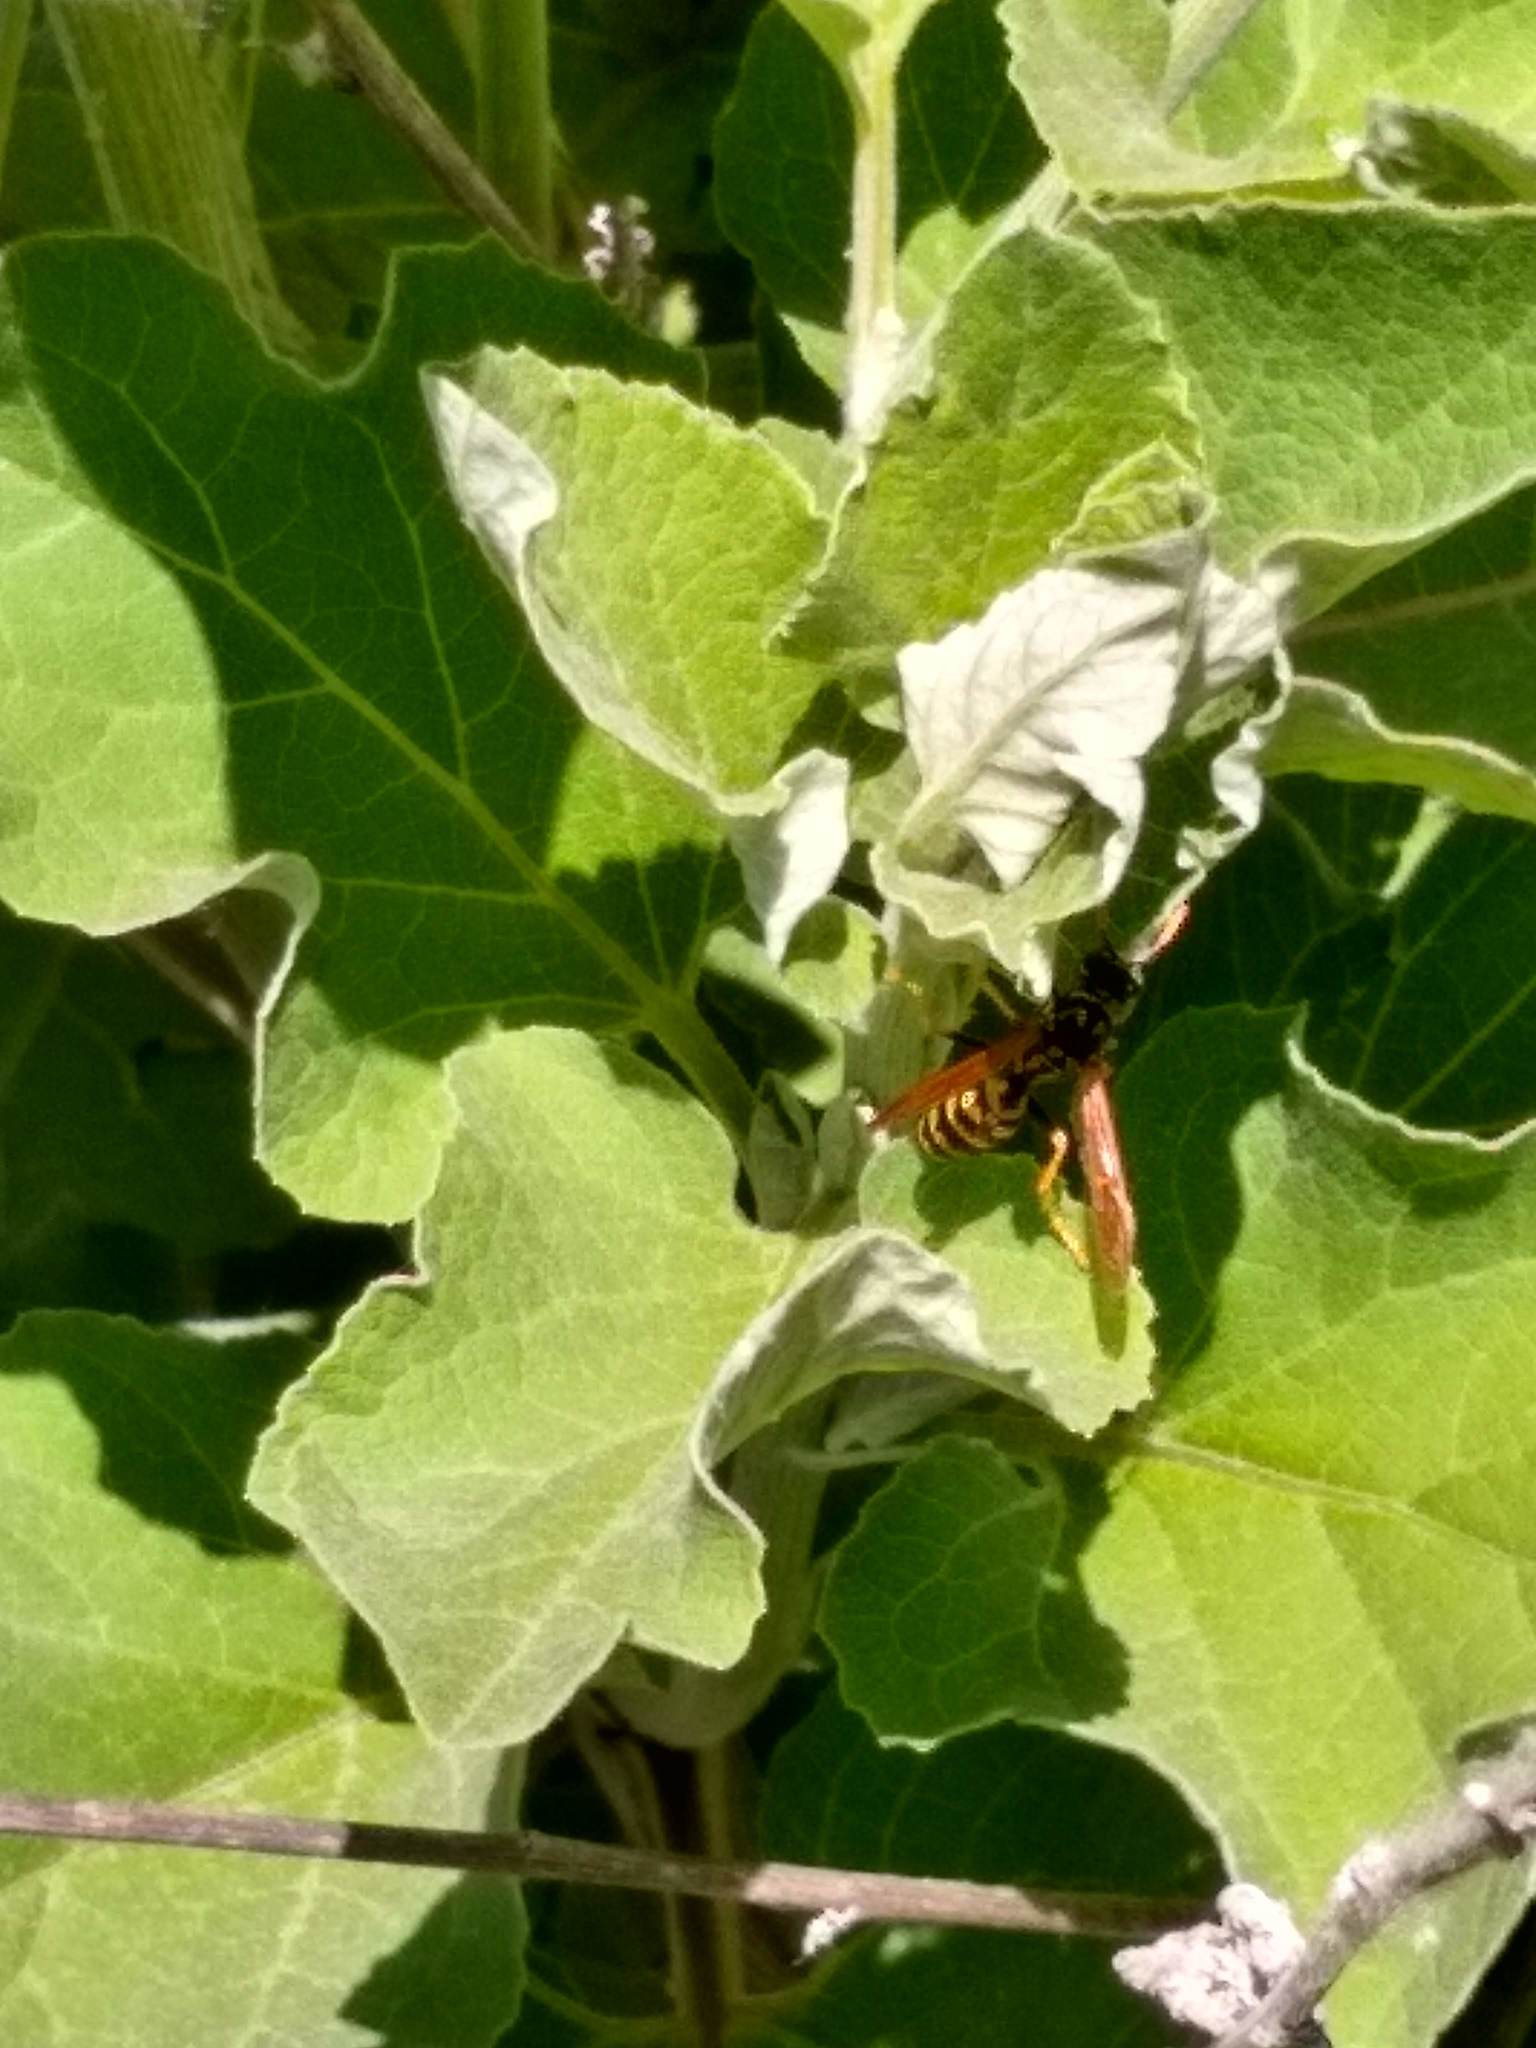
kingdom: Animalia
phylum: Arthropoda
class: Insecta
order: Hymenoptera
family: Eumenidae
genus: Polistes
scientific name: Polistes dominula
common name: Paper wasp
